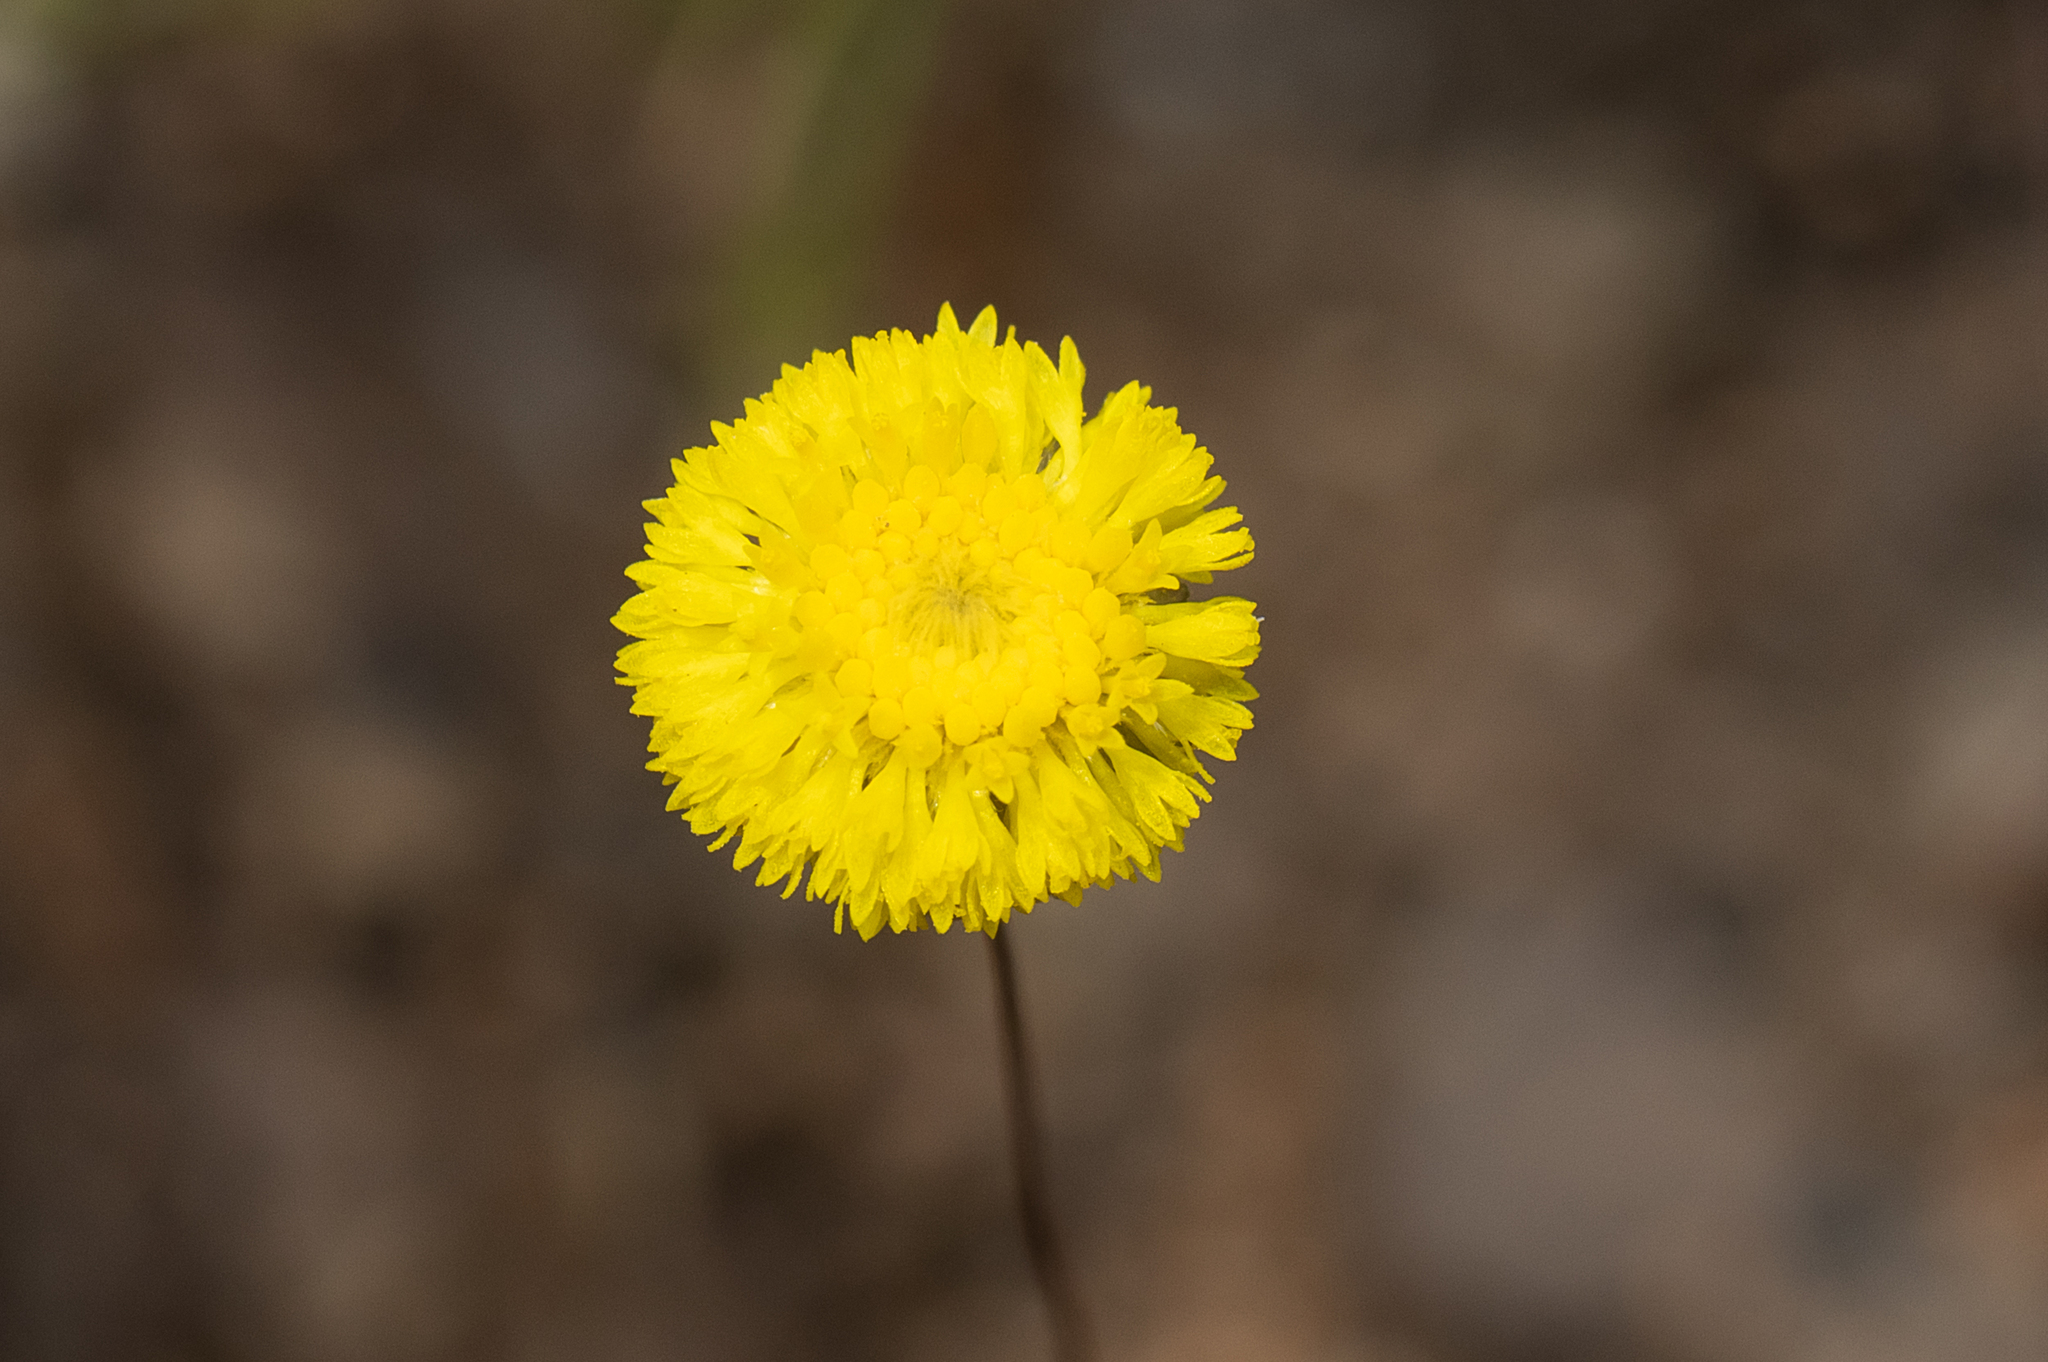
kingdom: Plantae
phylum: Tracheophyta
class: Magnoliopsida
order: Asterales
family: Asteraceae
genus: Panaetia
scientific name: Panaetia lessonii
